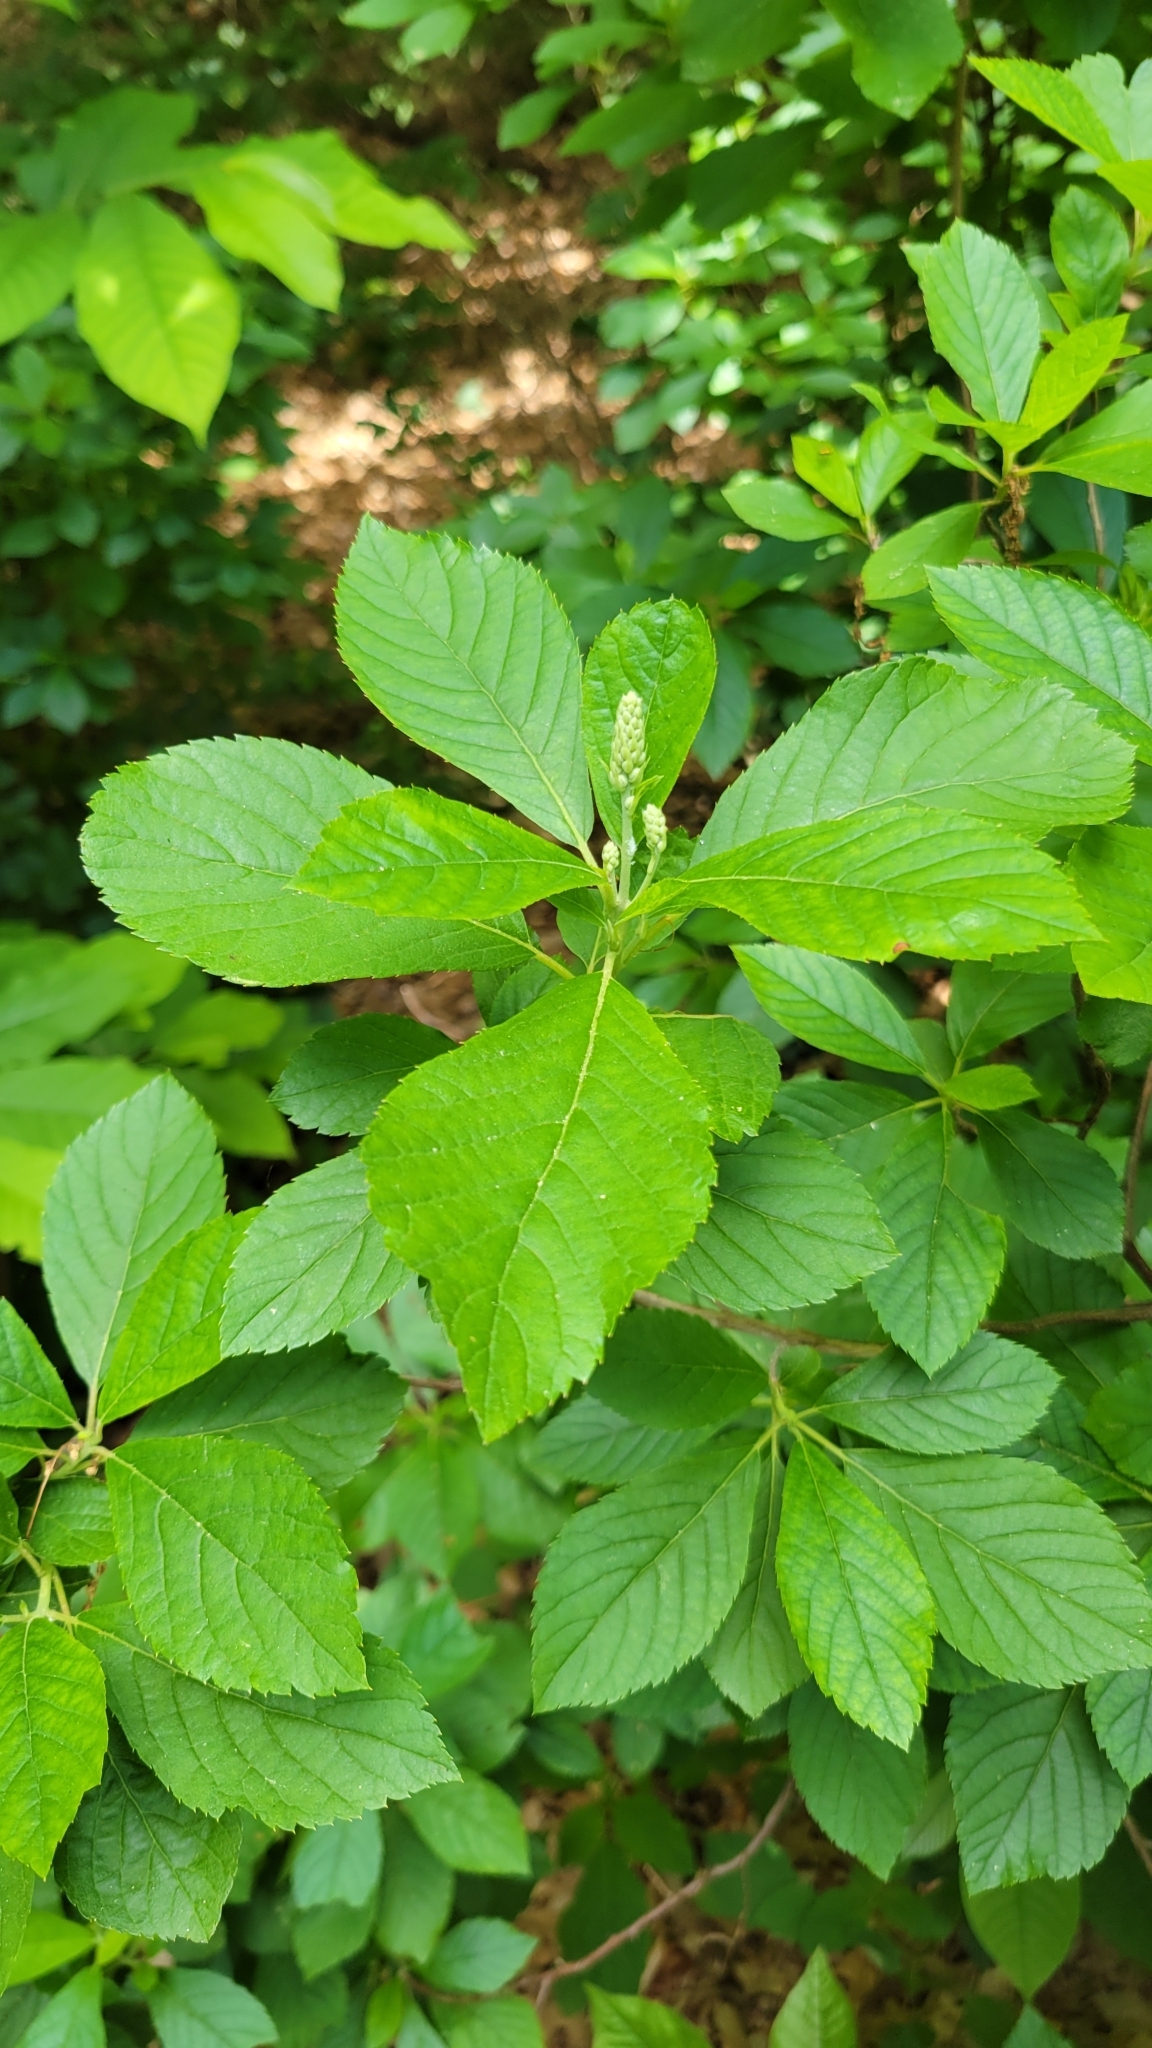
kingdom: Plantae
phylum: Tracheophyta
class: Magnoliopsida
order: Ericales
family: Clethraceae
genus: Clethra
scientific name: Clethra alnifolia
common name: Sweet pepperbush
